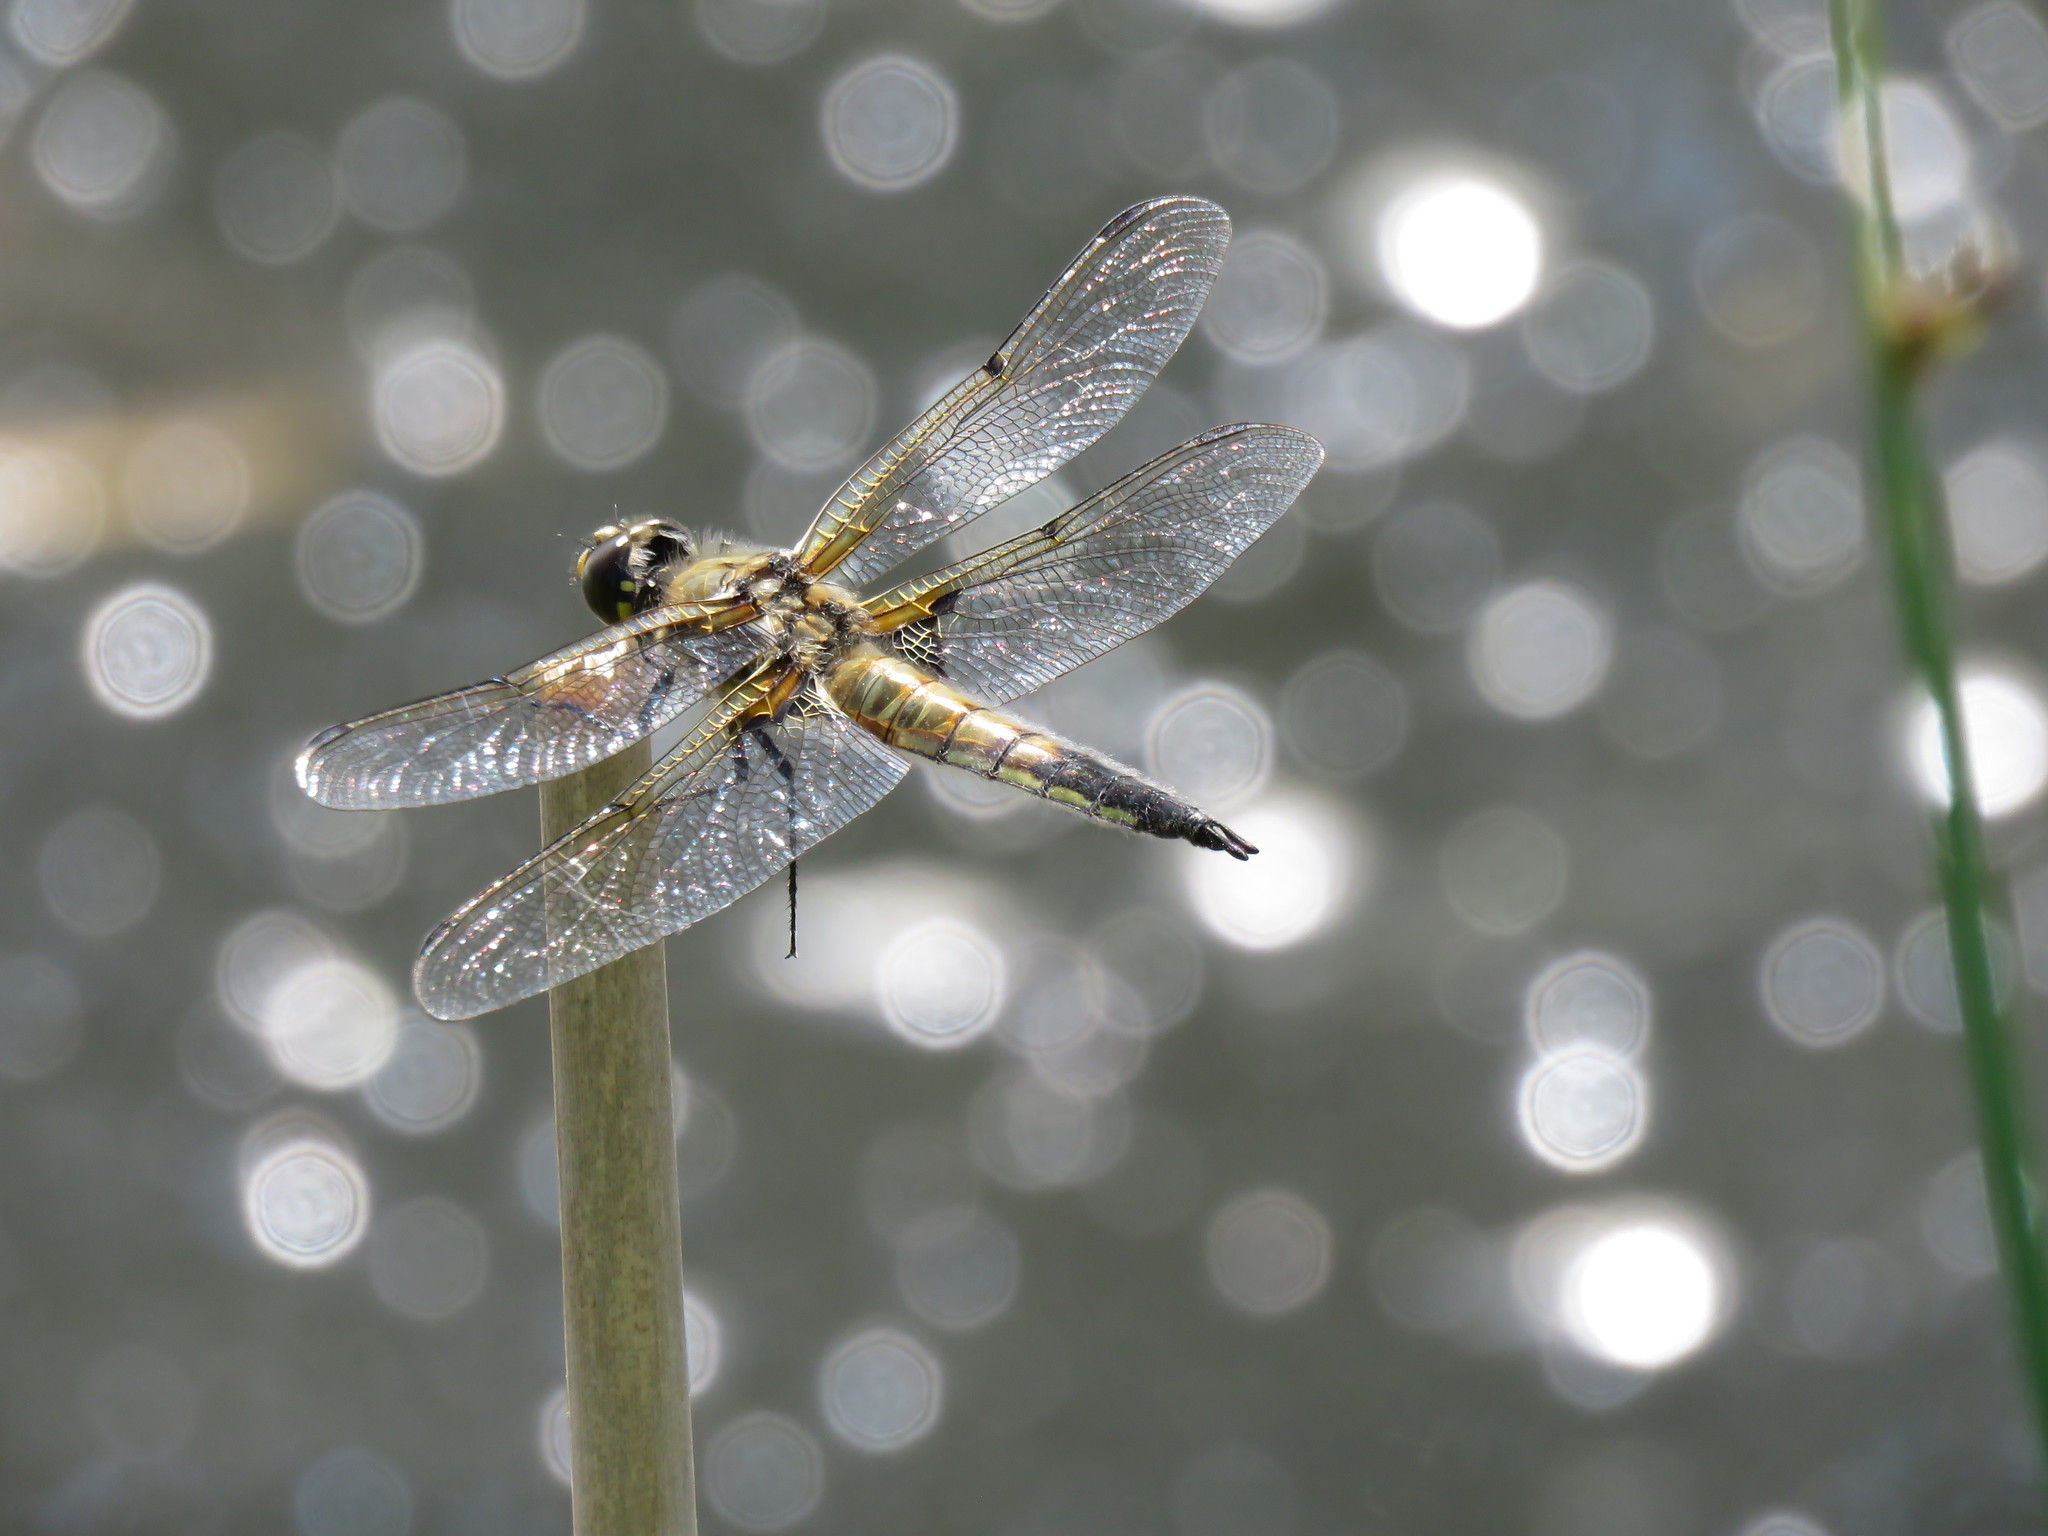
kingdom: Animalia
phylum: Arthropoda
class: Insecta
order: Odonata
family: Libellulidae
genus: Libellula
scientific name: Libellula quadrimaculata
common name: Four-spotted chaser
